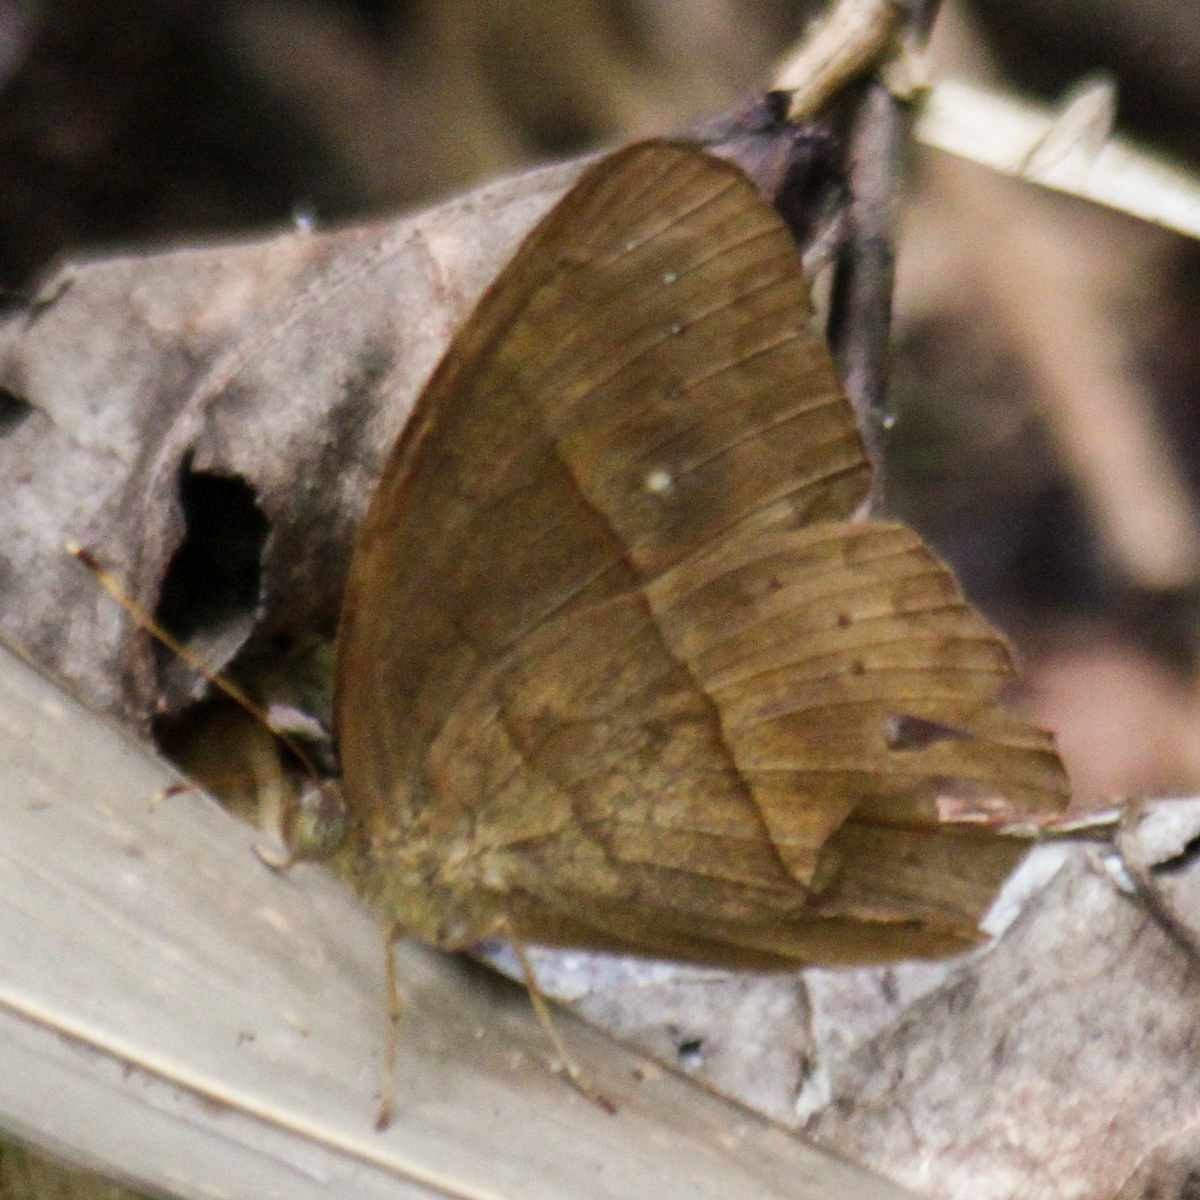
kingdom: Animalia
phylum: Arthropoda
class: Insecta
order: Lepidoptera
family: Nymphalidae
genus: Mycalesis
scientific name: Mycalesis mnasicles
